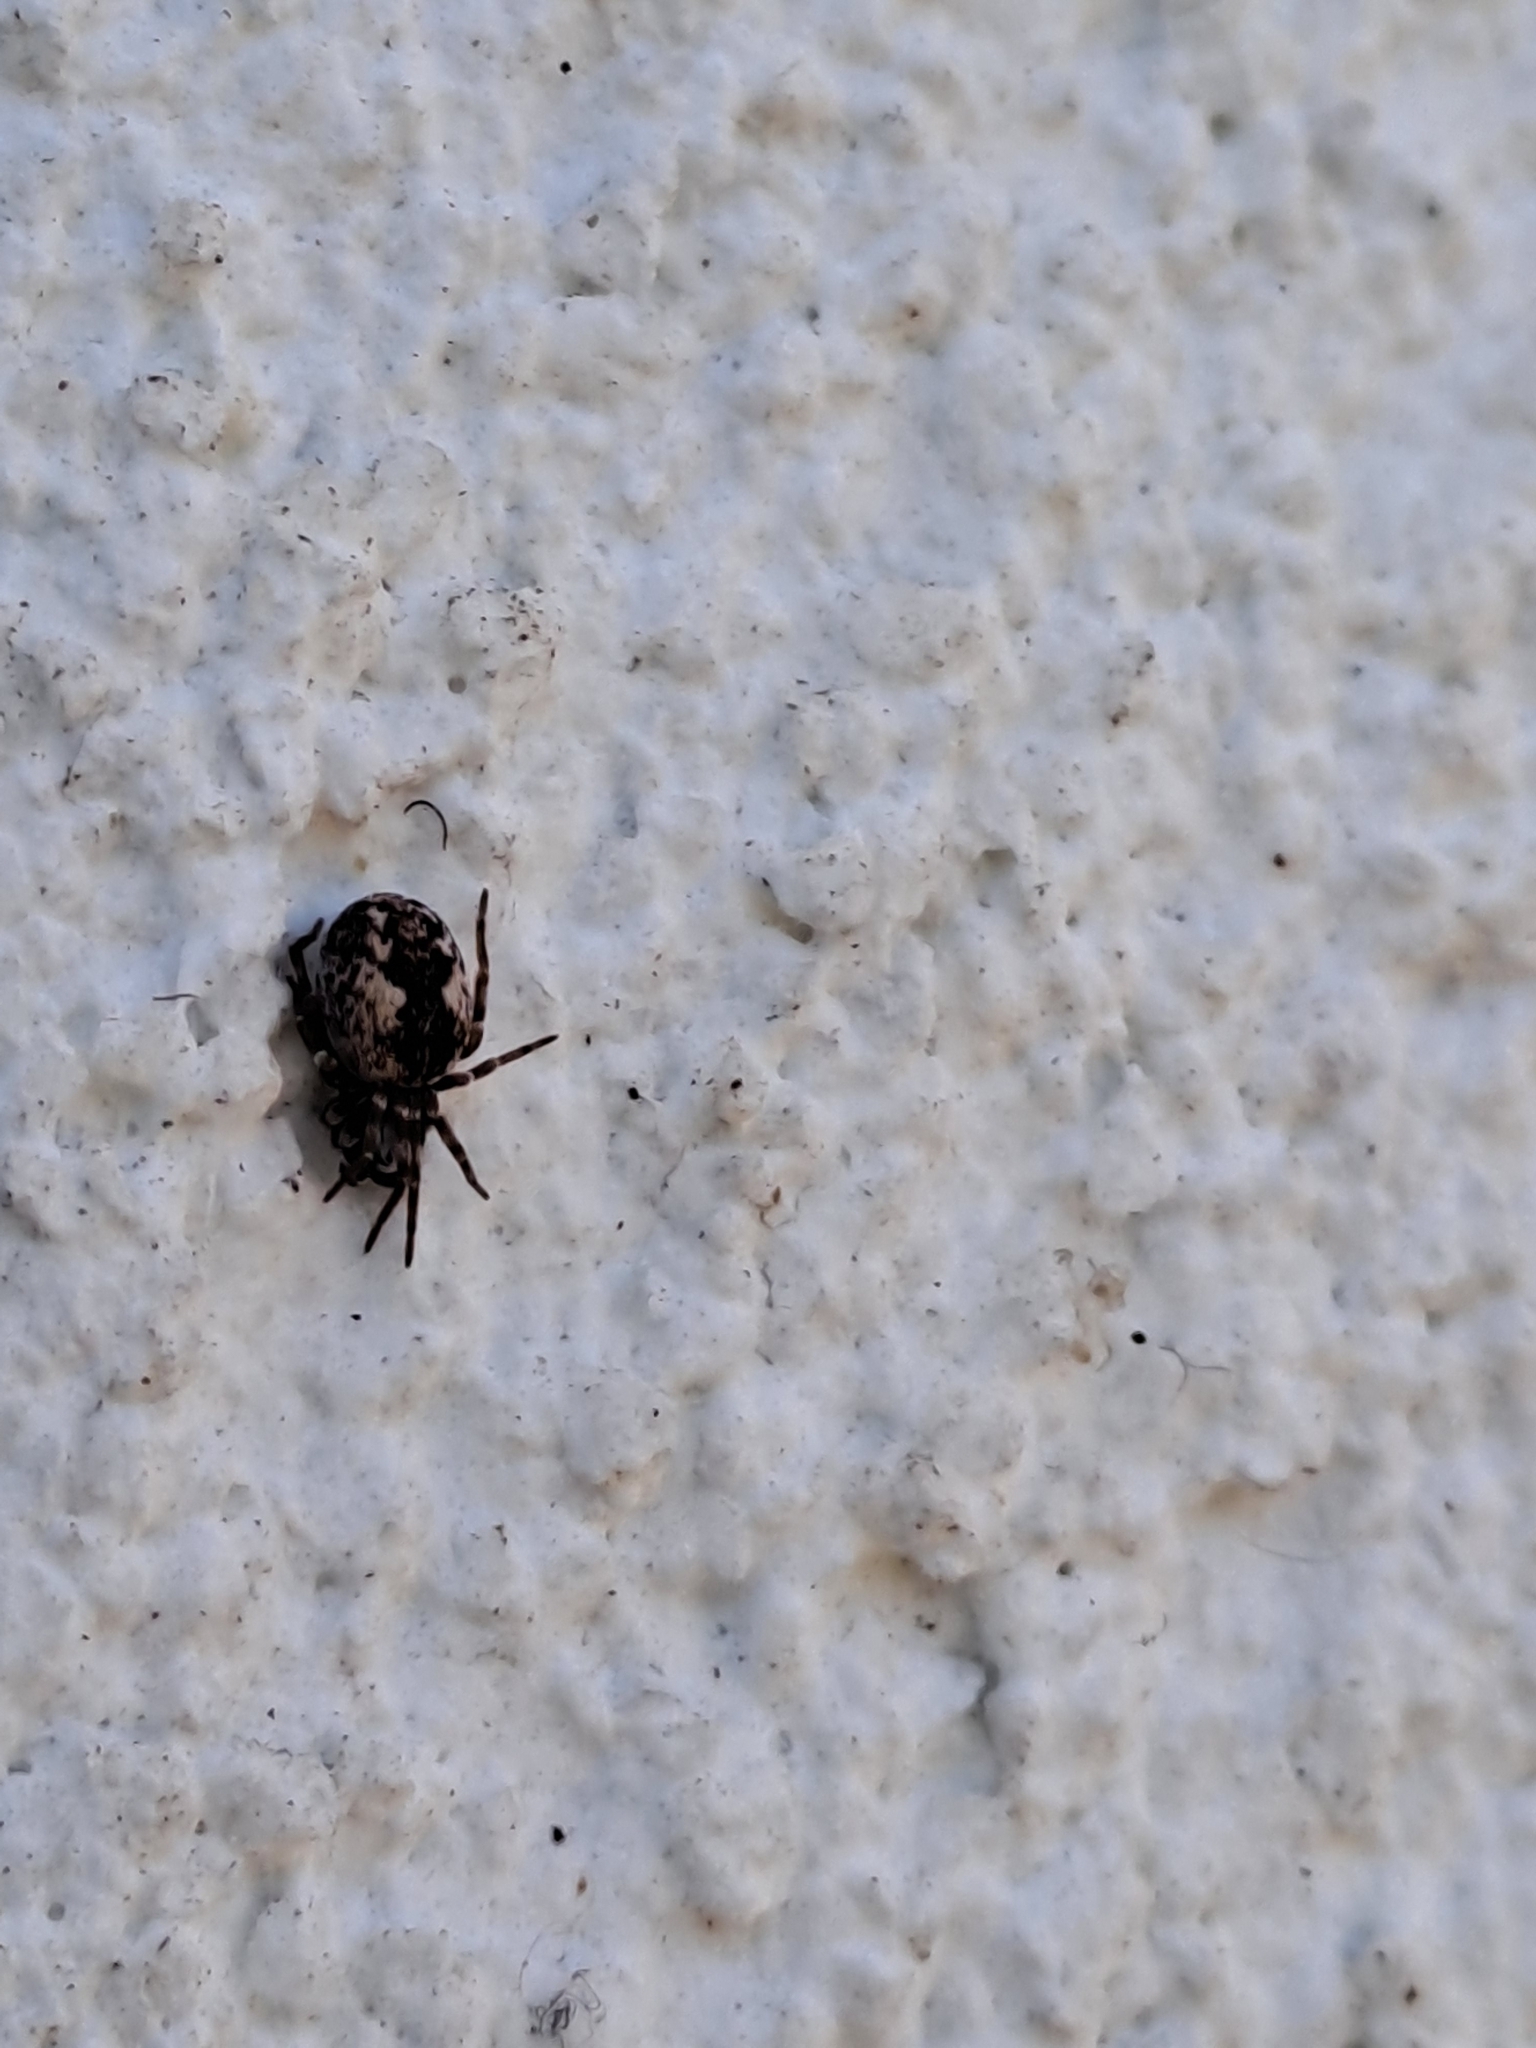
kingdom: Animalia
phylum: Arthropoda
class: Arachnida
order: Araneae
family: Dictynidae
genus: Brigittea
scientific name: Brigittea civica
